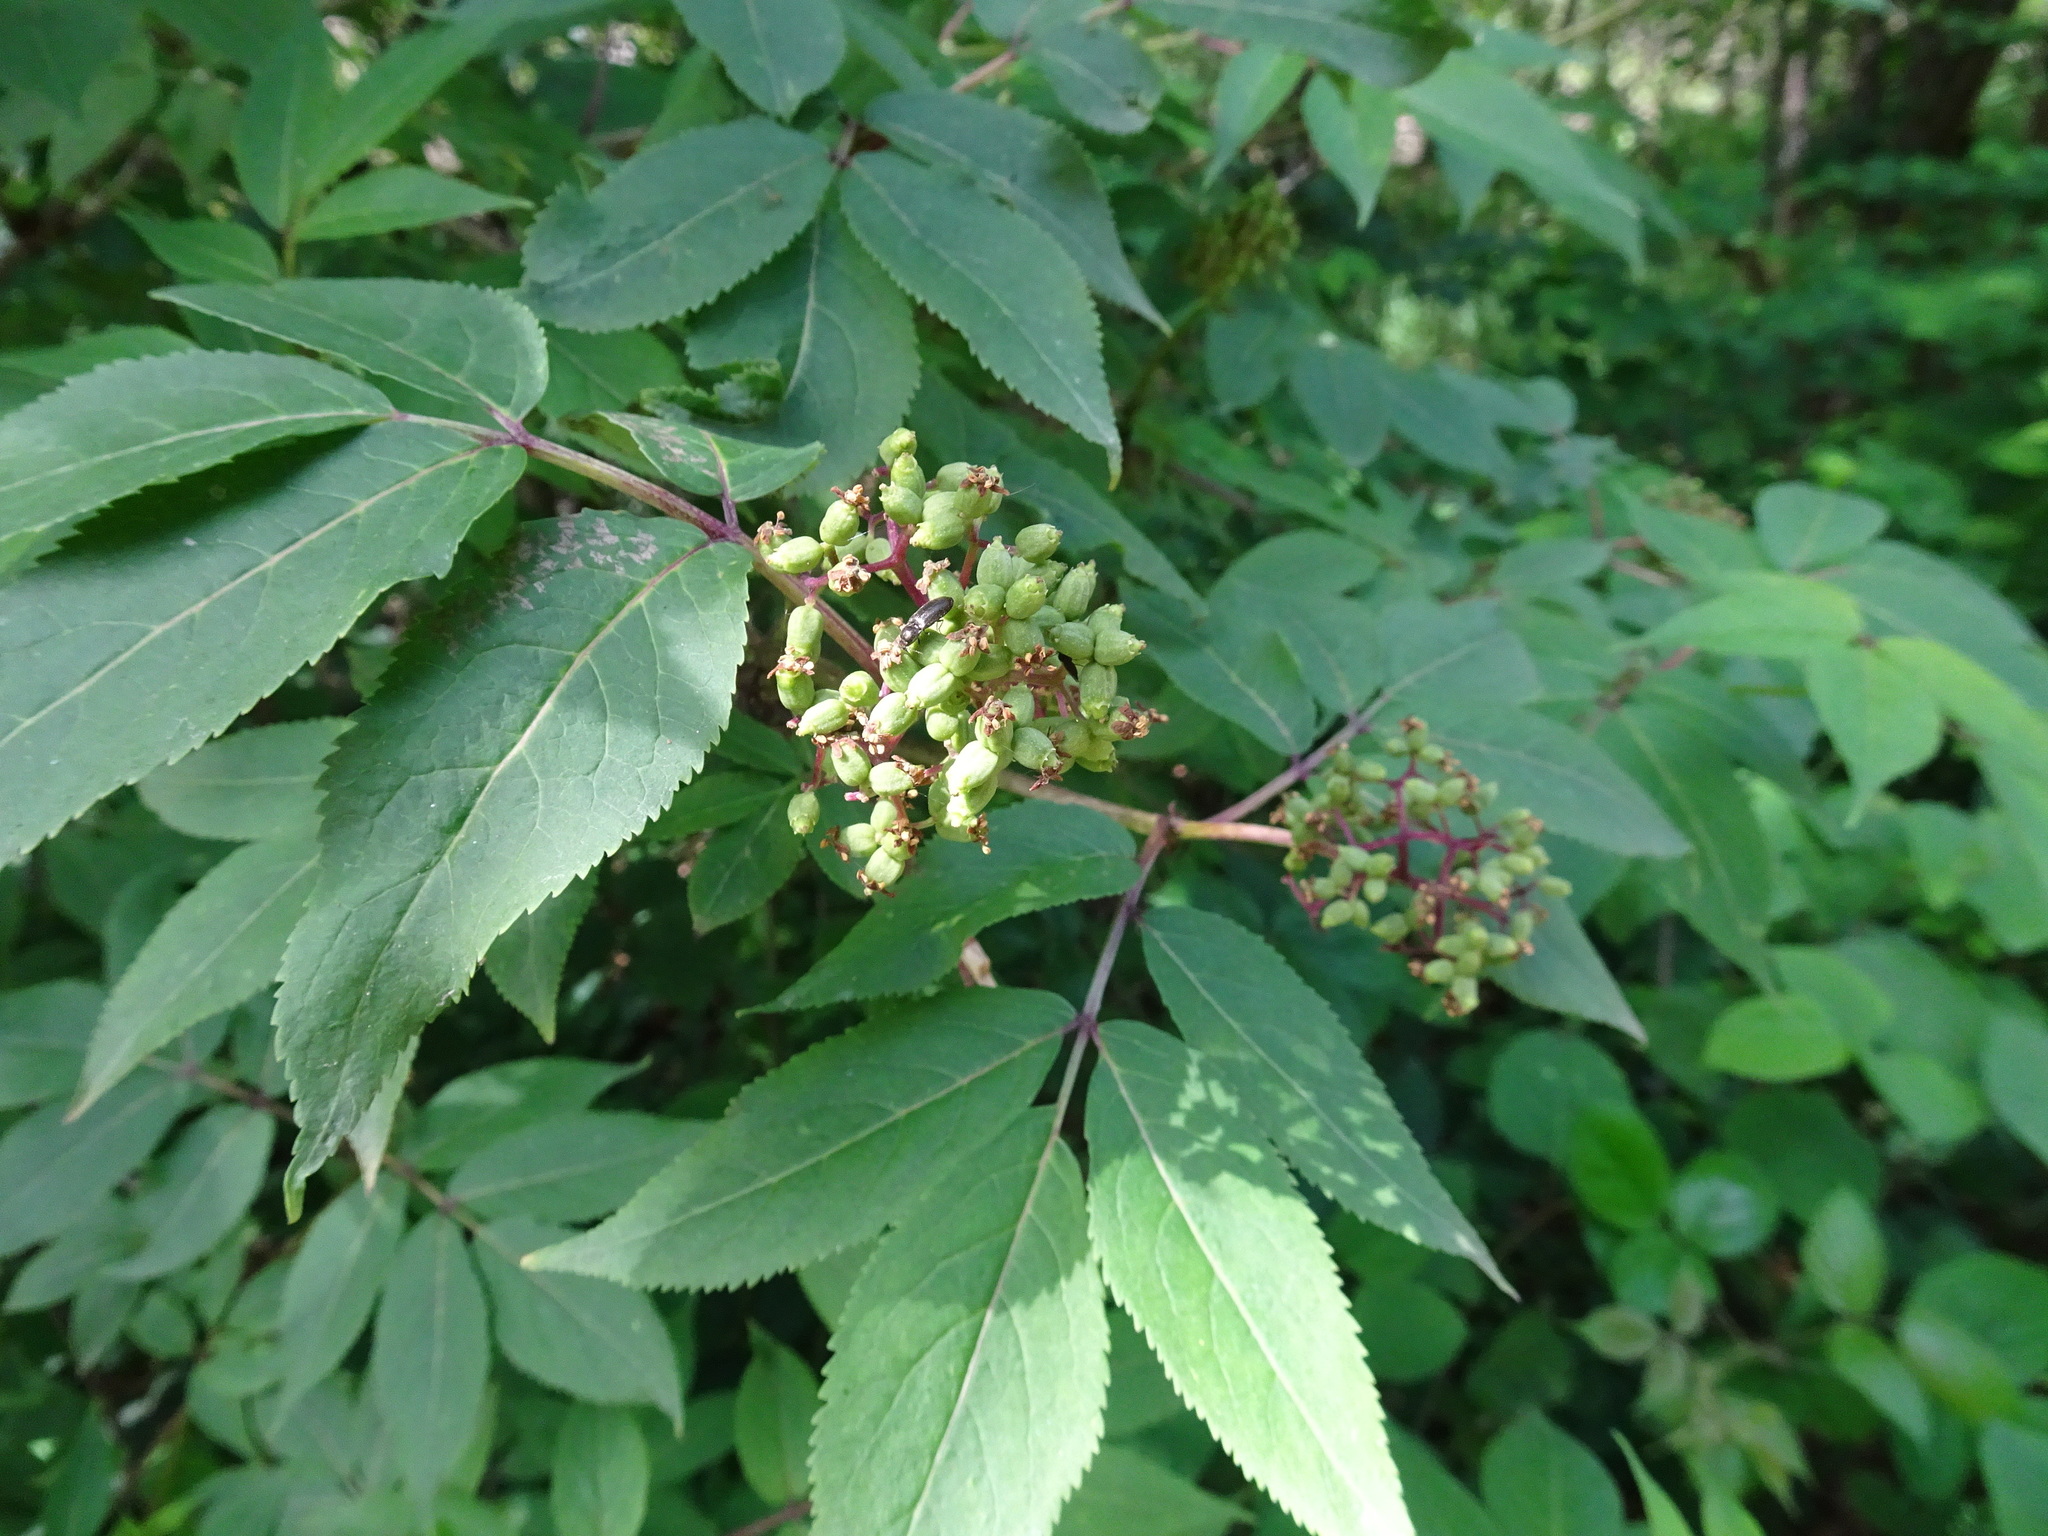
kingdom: Plantae
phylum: Tracheophyta
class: Magnoliopsida
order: Dipsacales
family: Viburnaceae
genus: Sambucus
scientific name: Sambucus racemosa
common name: Red-berried elder
